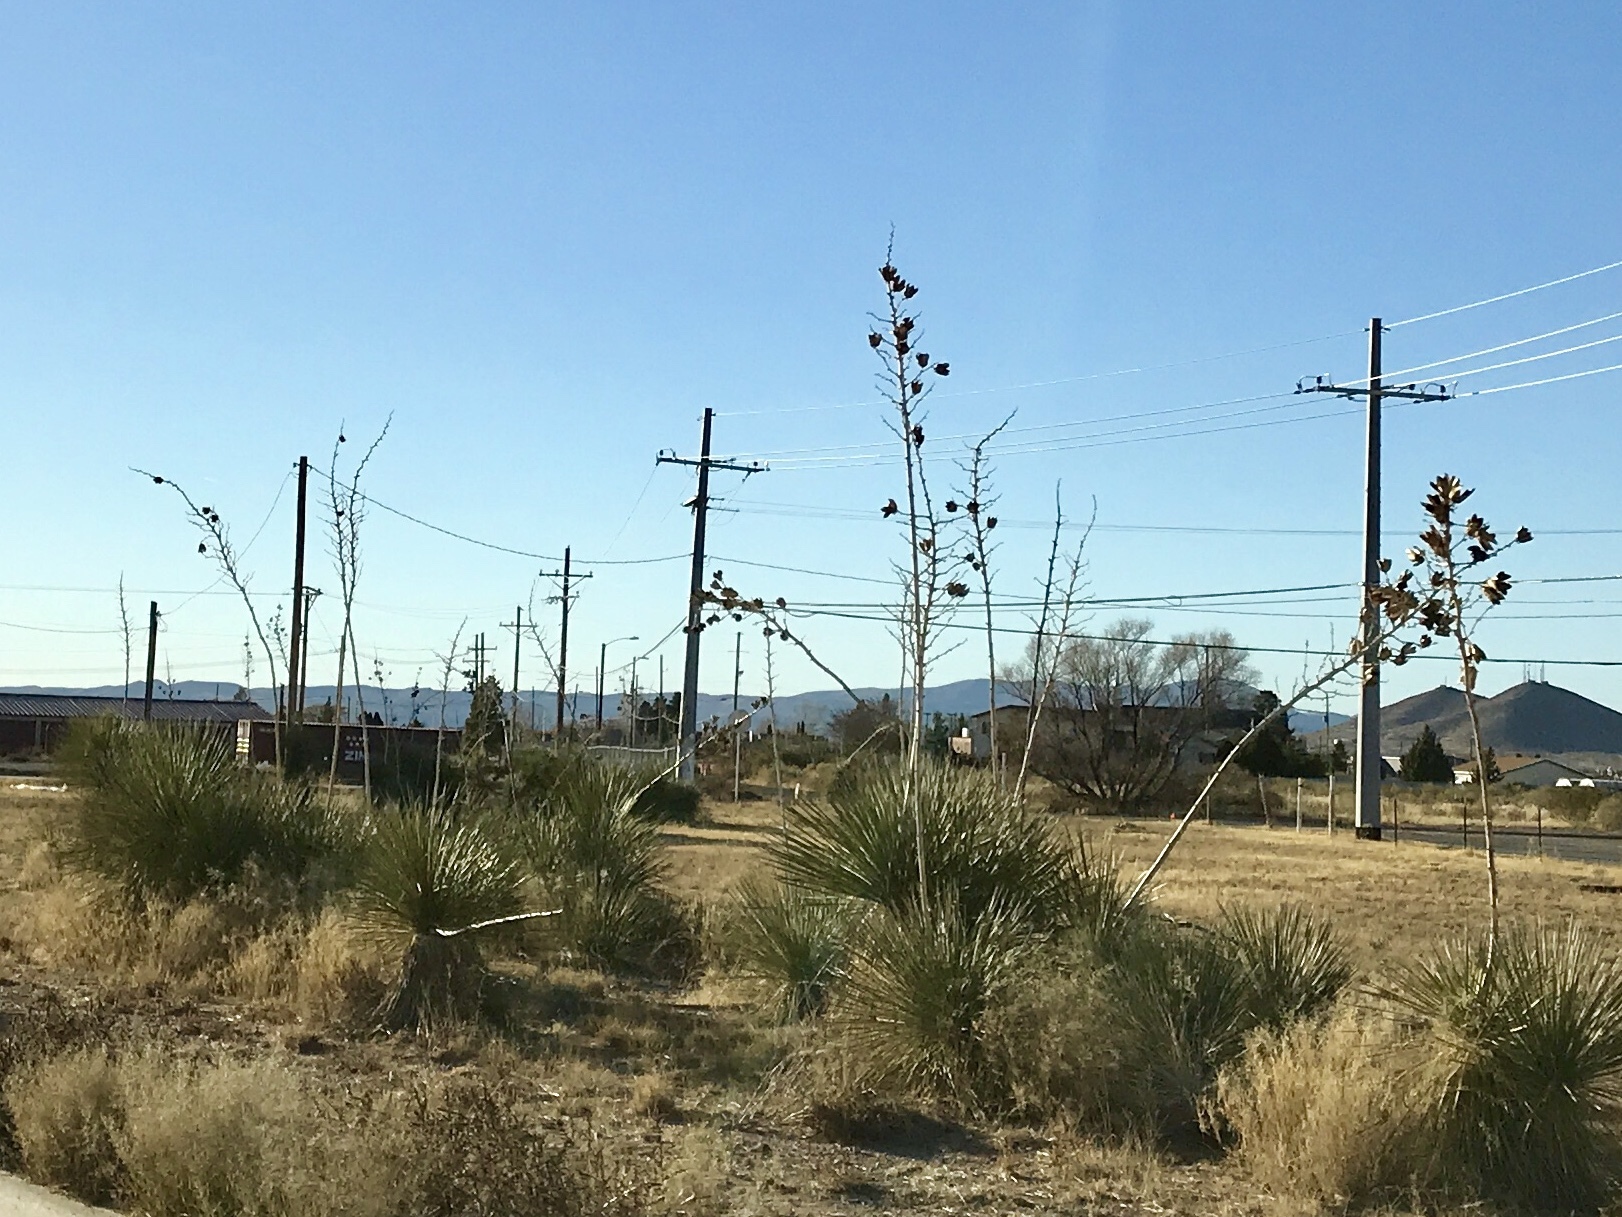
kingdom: Plantae
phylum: Tracheophyta
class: Liliopsida
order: Asparagales
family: Asparagaceae
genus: Yucca
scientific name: Yucca elata
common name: Palmella
